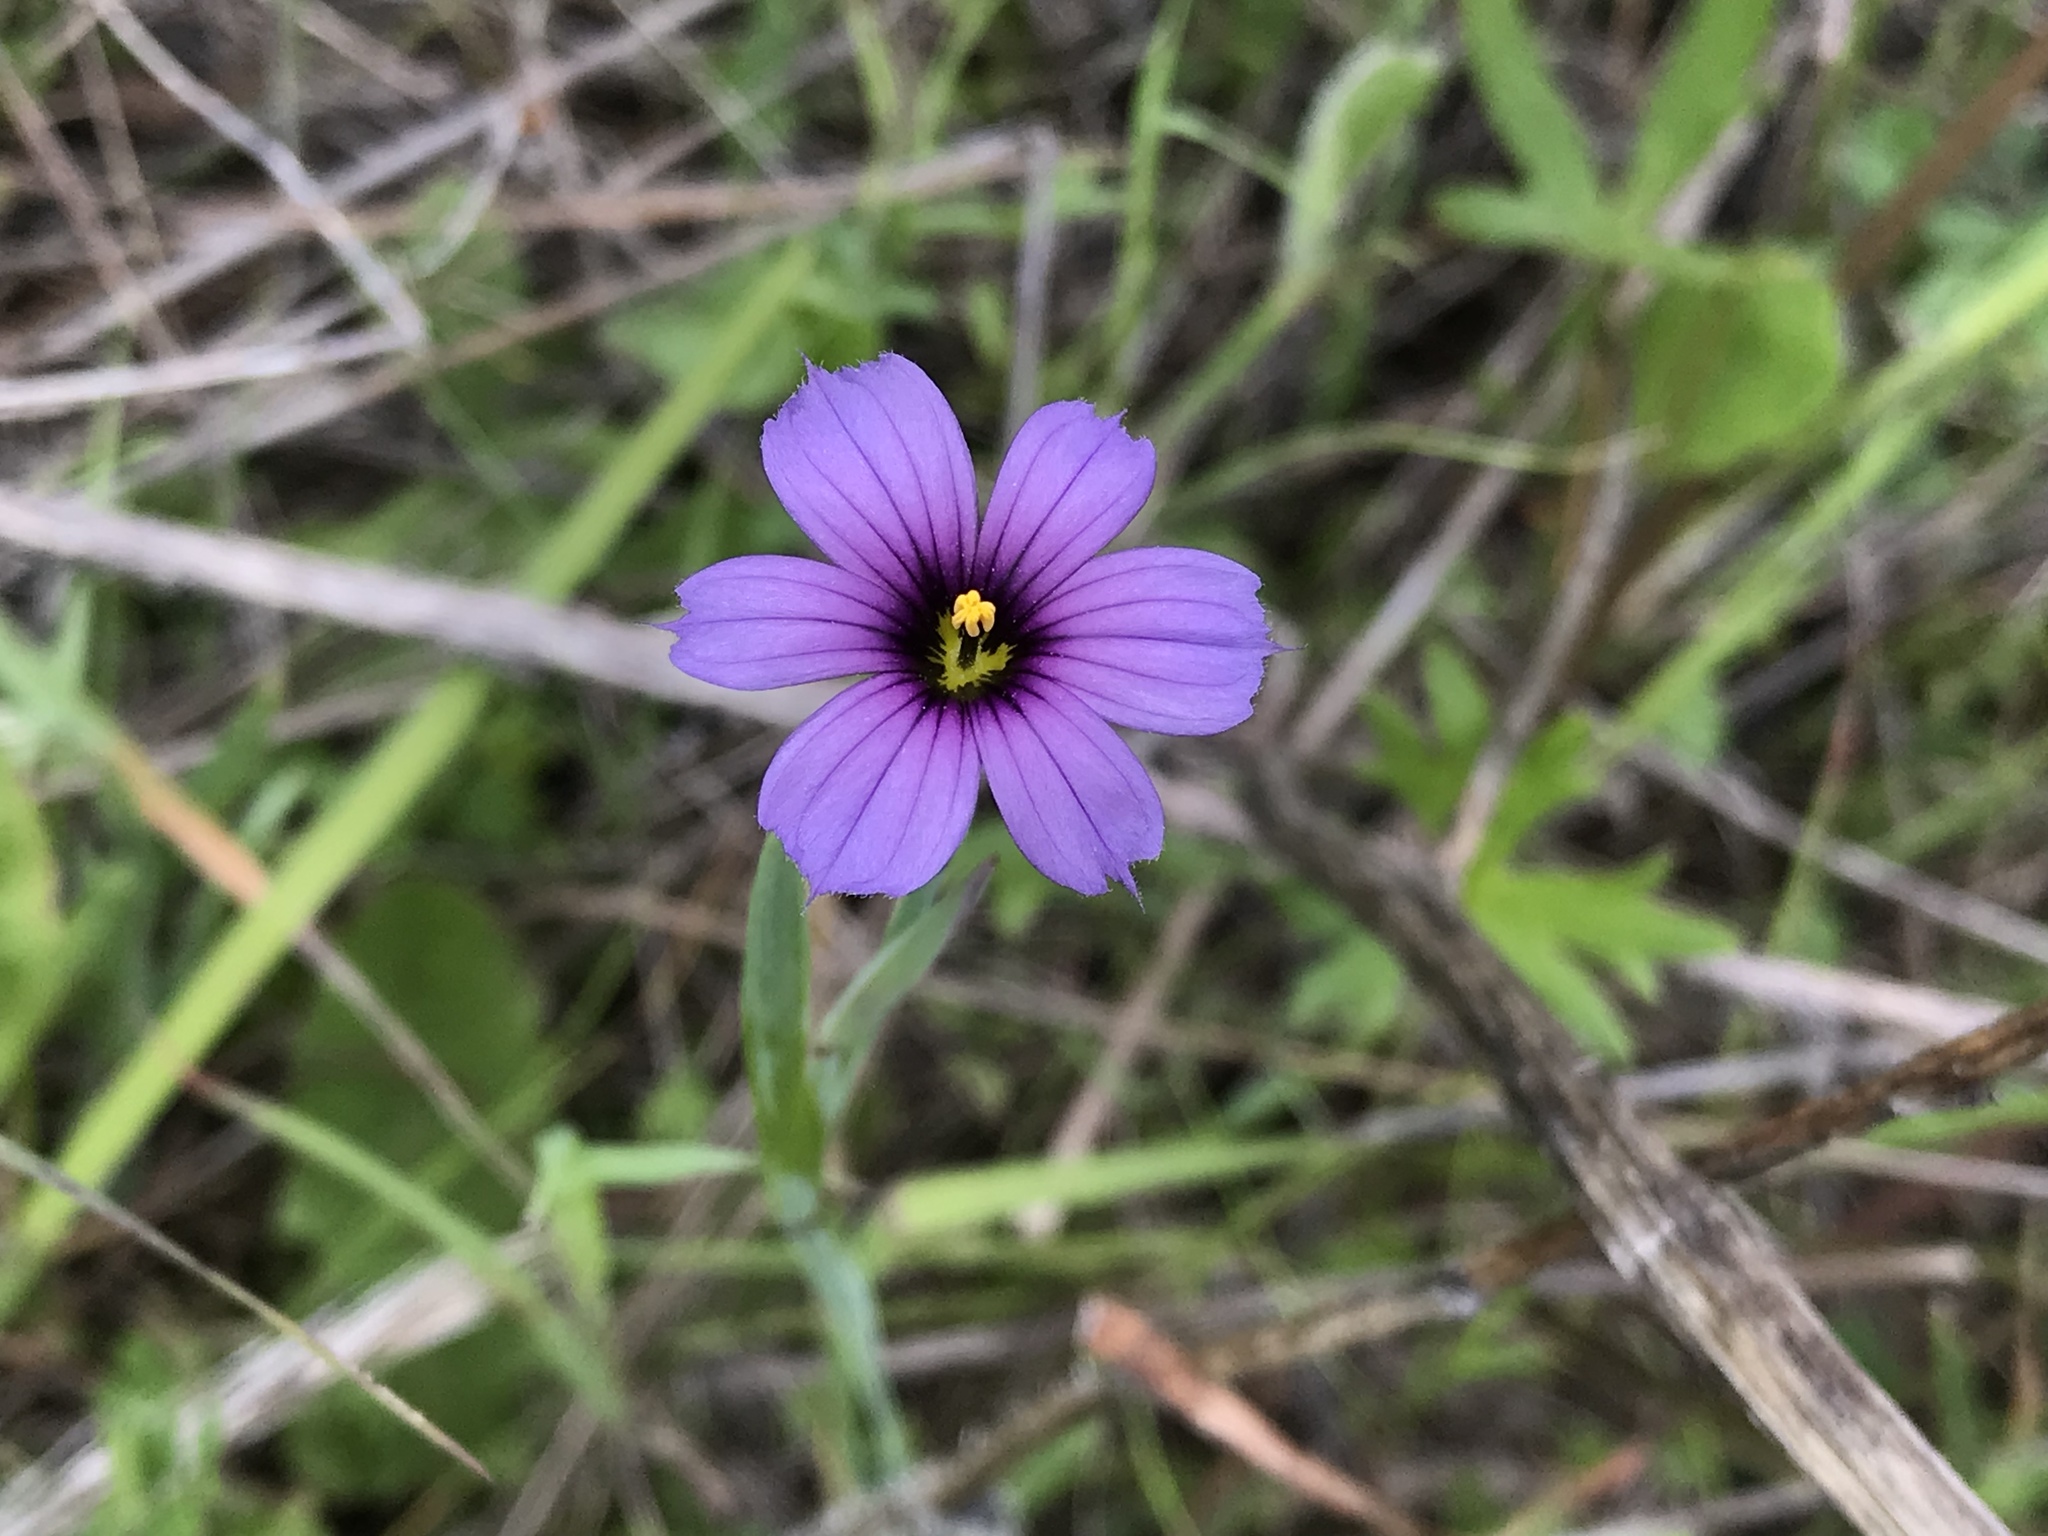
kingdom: Plantae
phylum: Tracheophyta
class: Liliopsida
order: Asparagales
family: Iridaceae
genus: Sisyrinchium
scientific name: Sisyrinchium bellum
